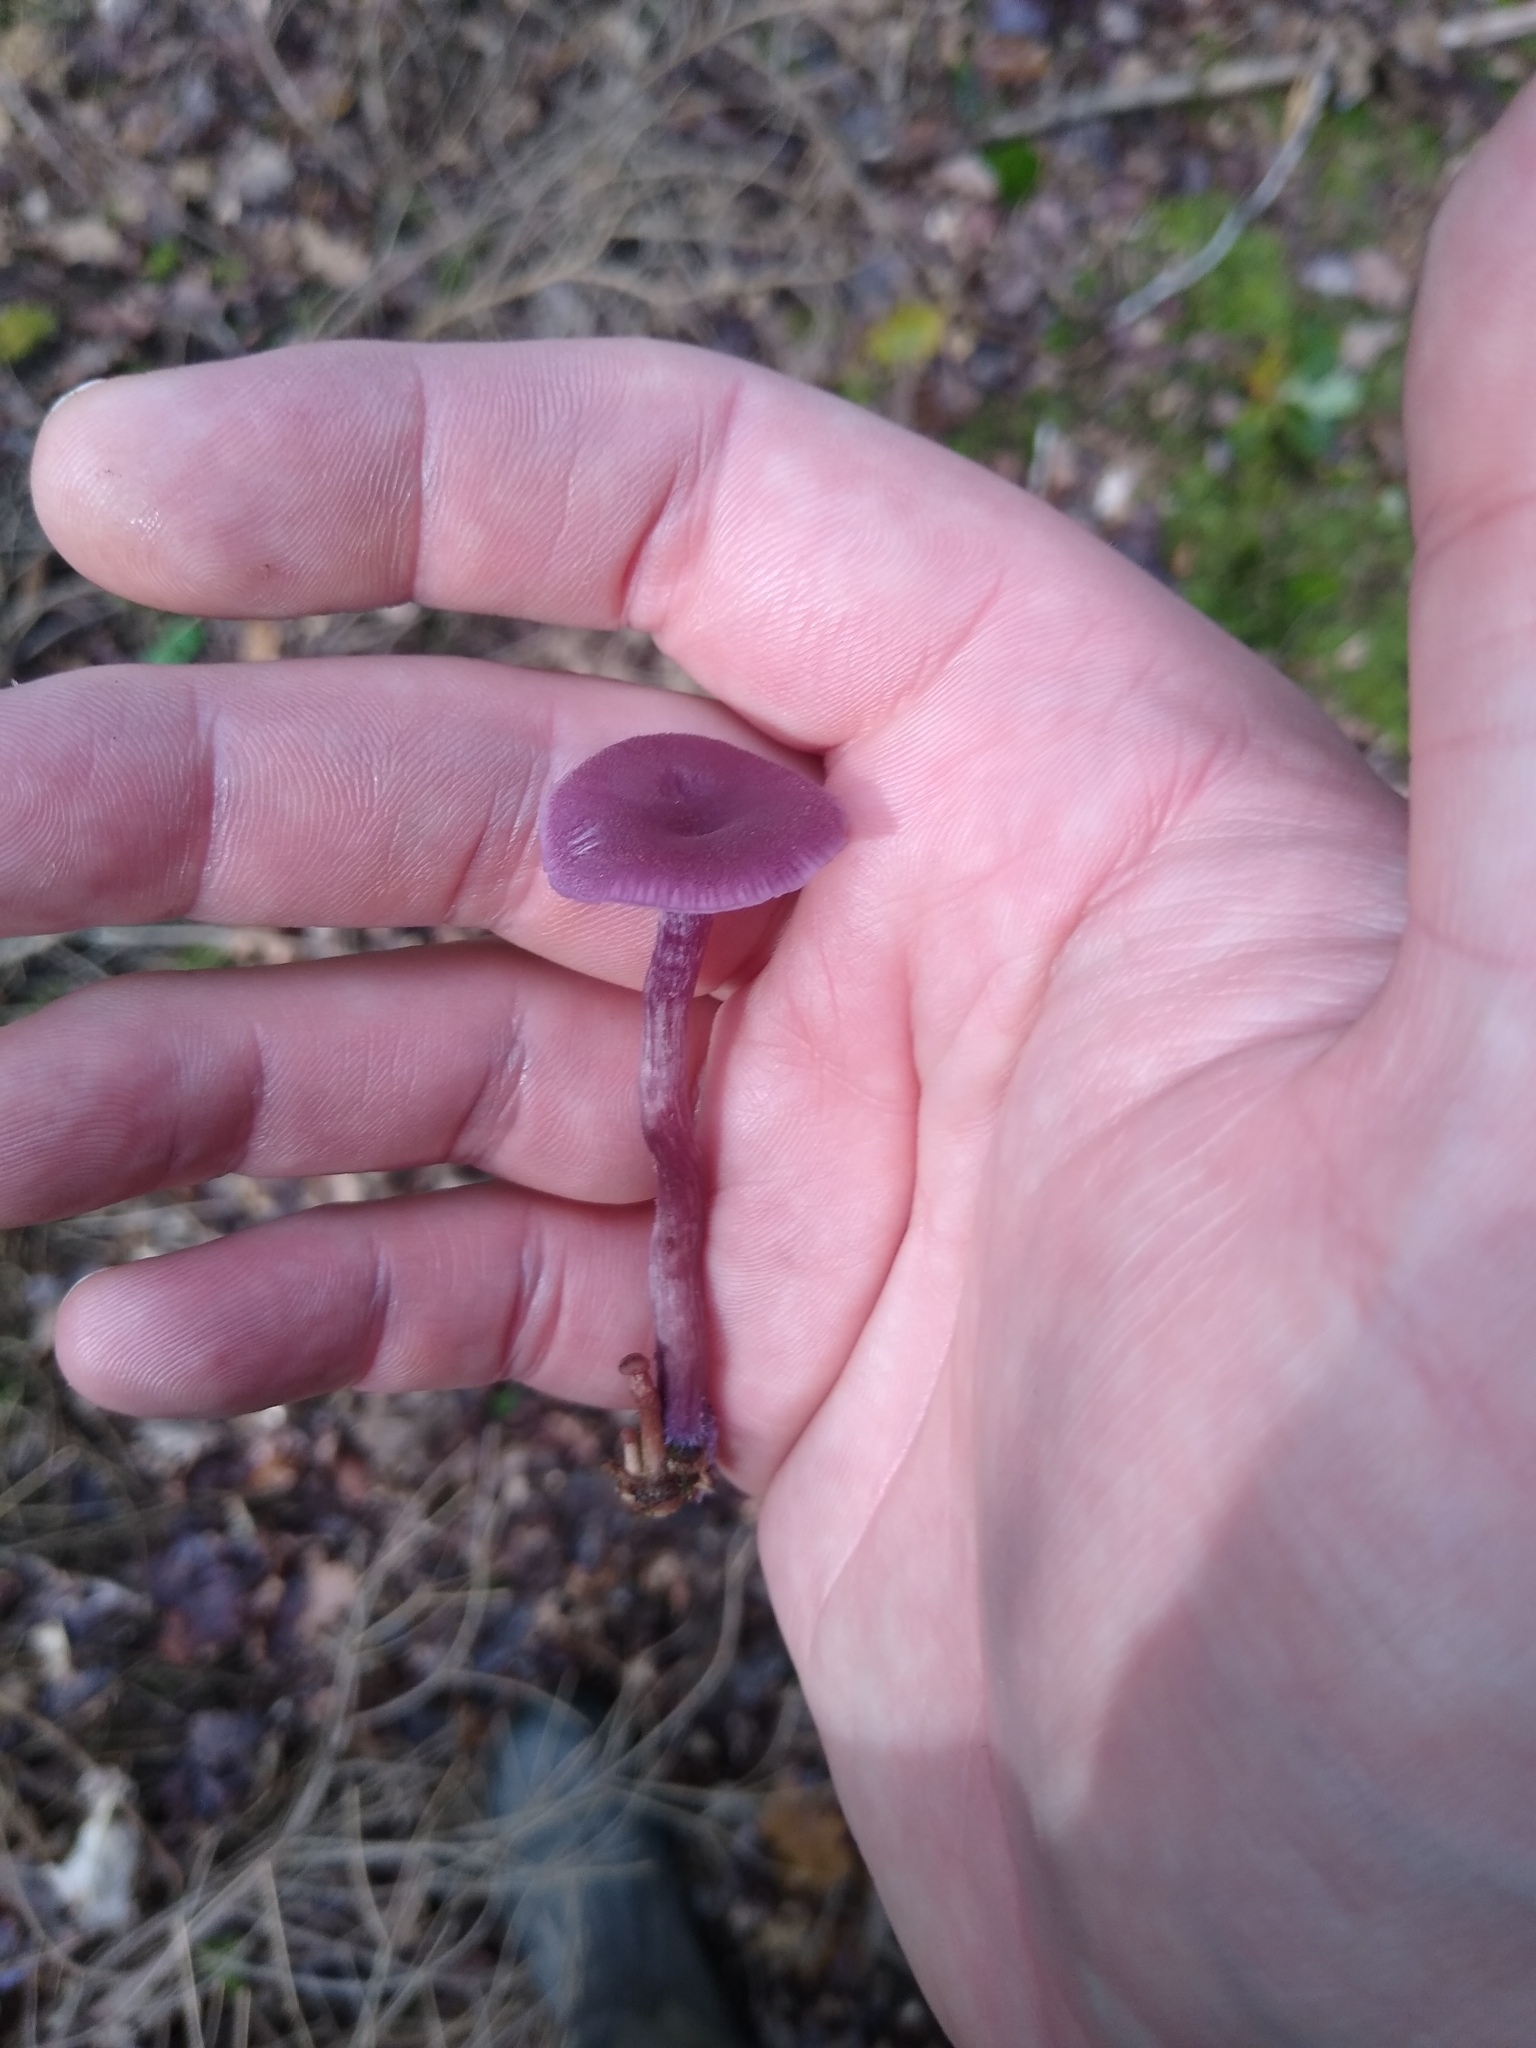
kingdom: Fungi
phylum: Basidiomycota
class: Agaricomycetes
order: Agaricales
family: Hydnangiaceae
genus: Laccaria
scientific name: Laccaria amethystina
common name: Amethyst deceiver
